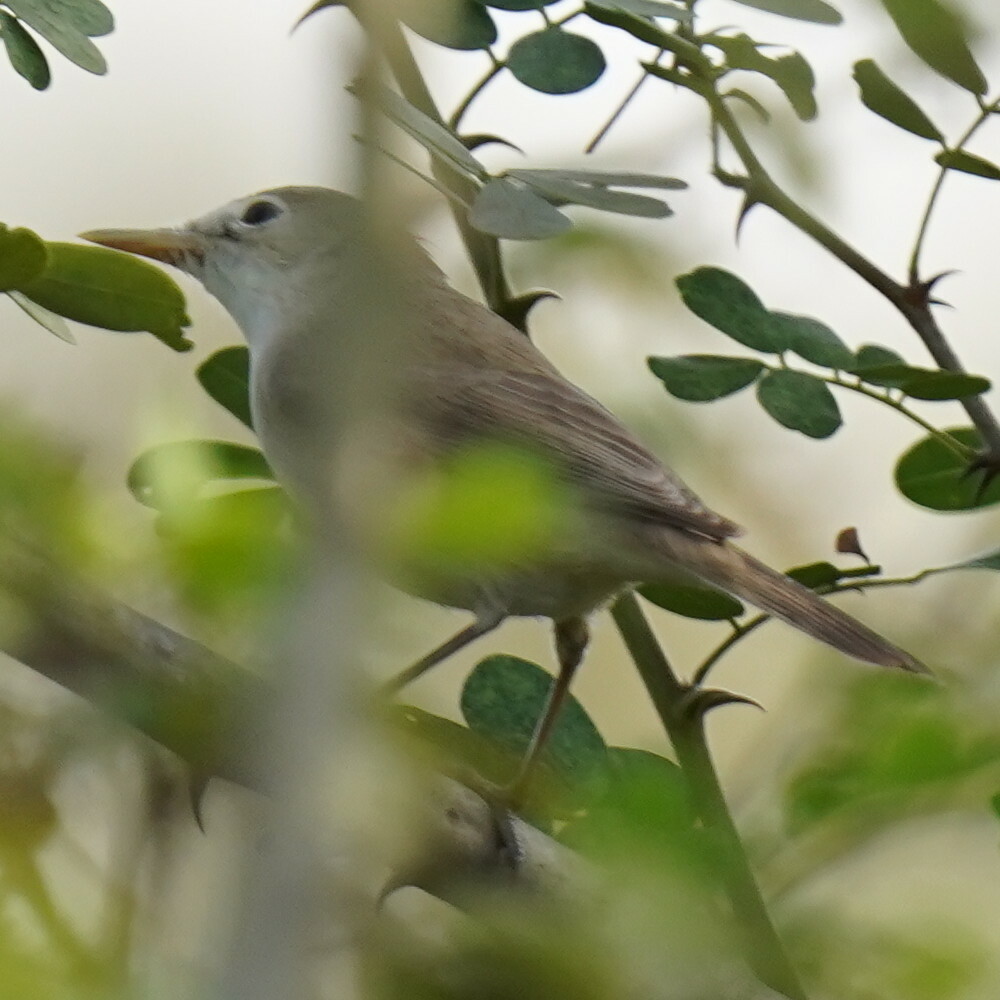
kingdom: Animalia
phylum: Chordata
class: Aves
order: Passeriformes
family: Acrocephalidae
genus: Hippolais
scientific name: Hippolais polyglotta
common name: Melodious warbler
